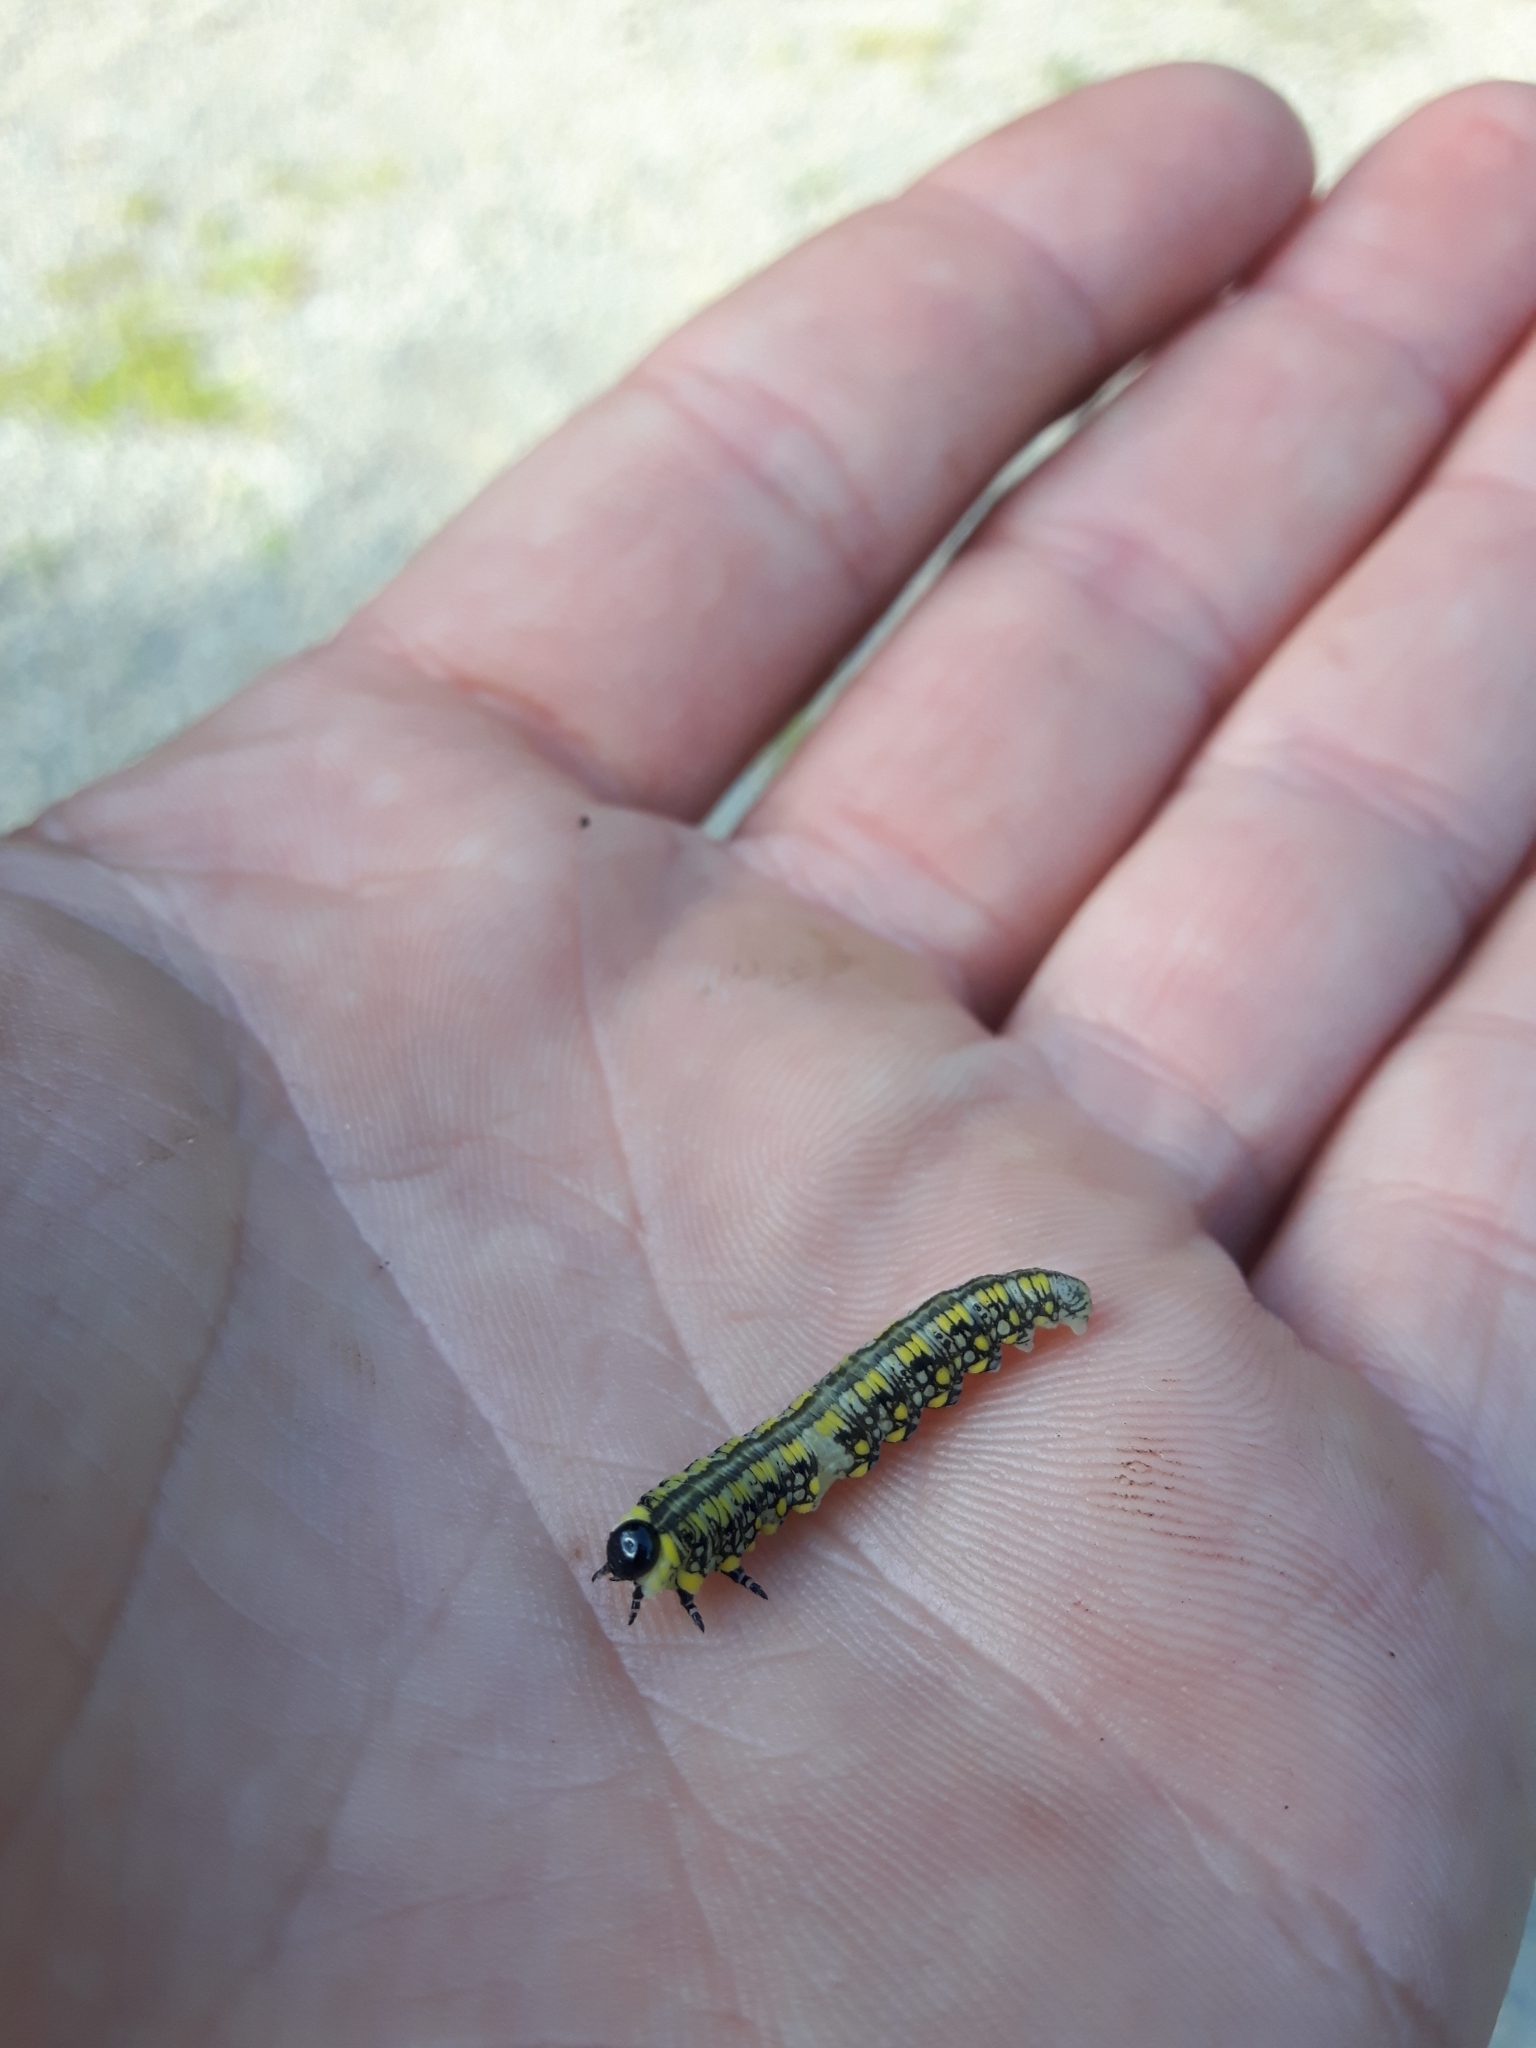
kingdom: Animalia
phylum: Arthropoda
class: Insecta
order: Hymenoptera
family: Diprionidae
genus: Diprion
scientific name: Diprion similis
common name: Pine sawfly
